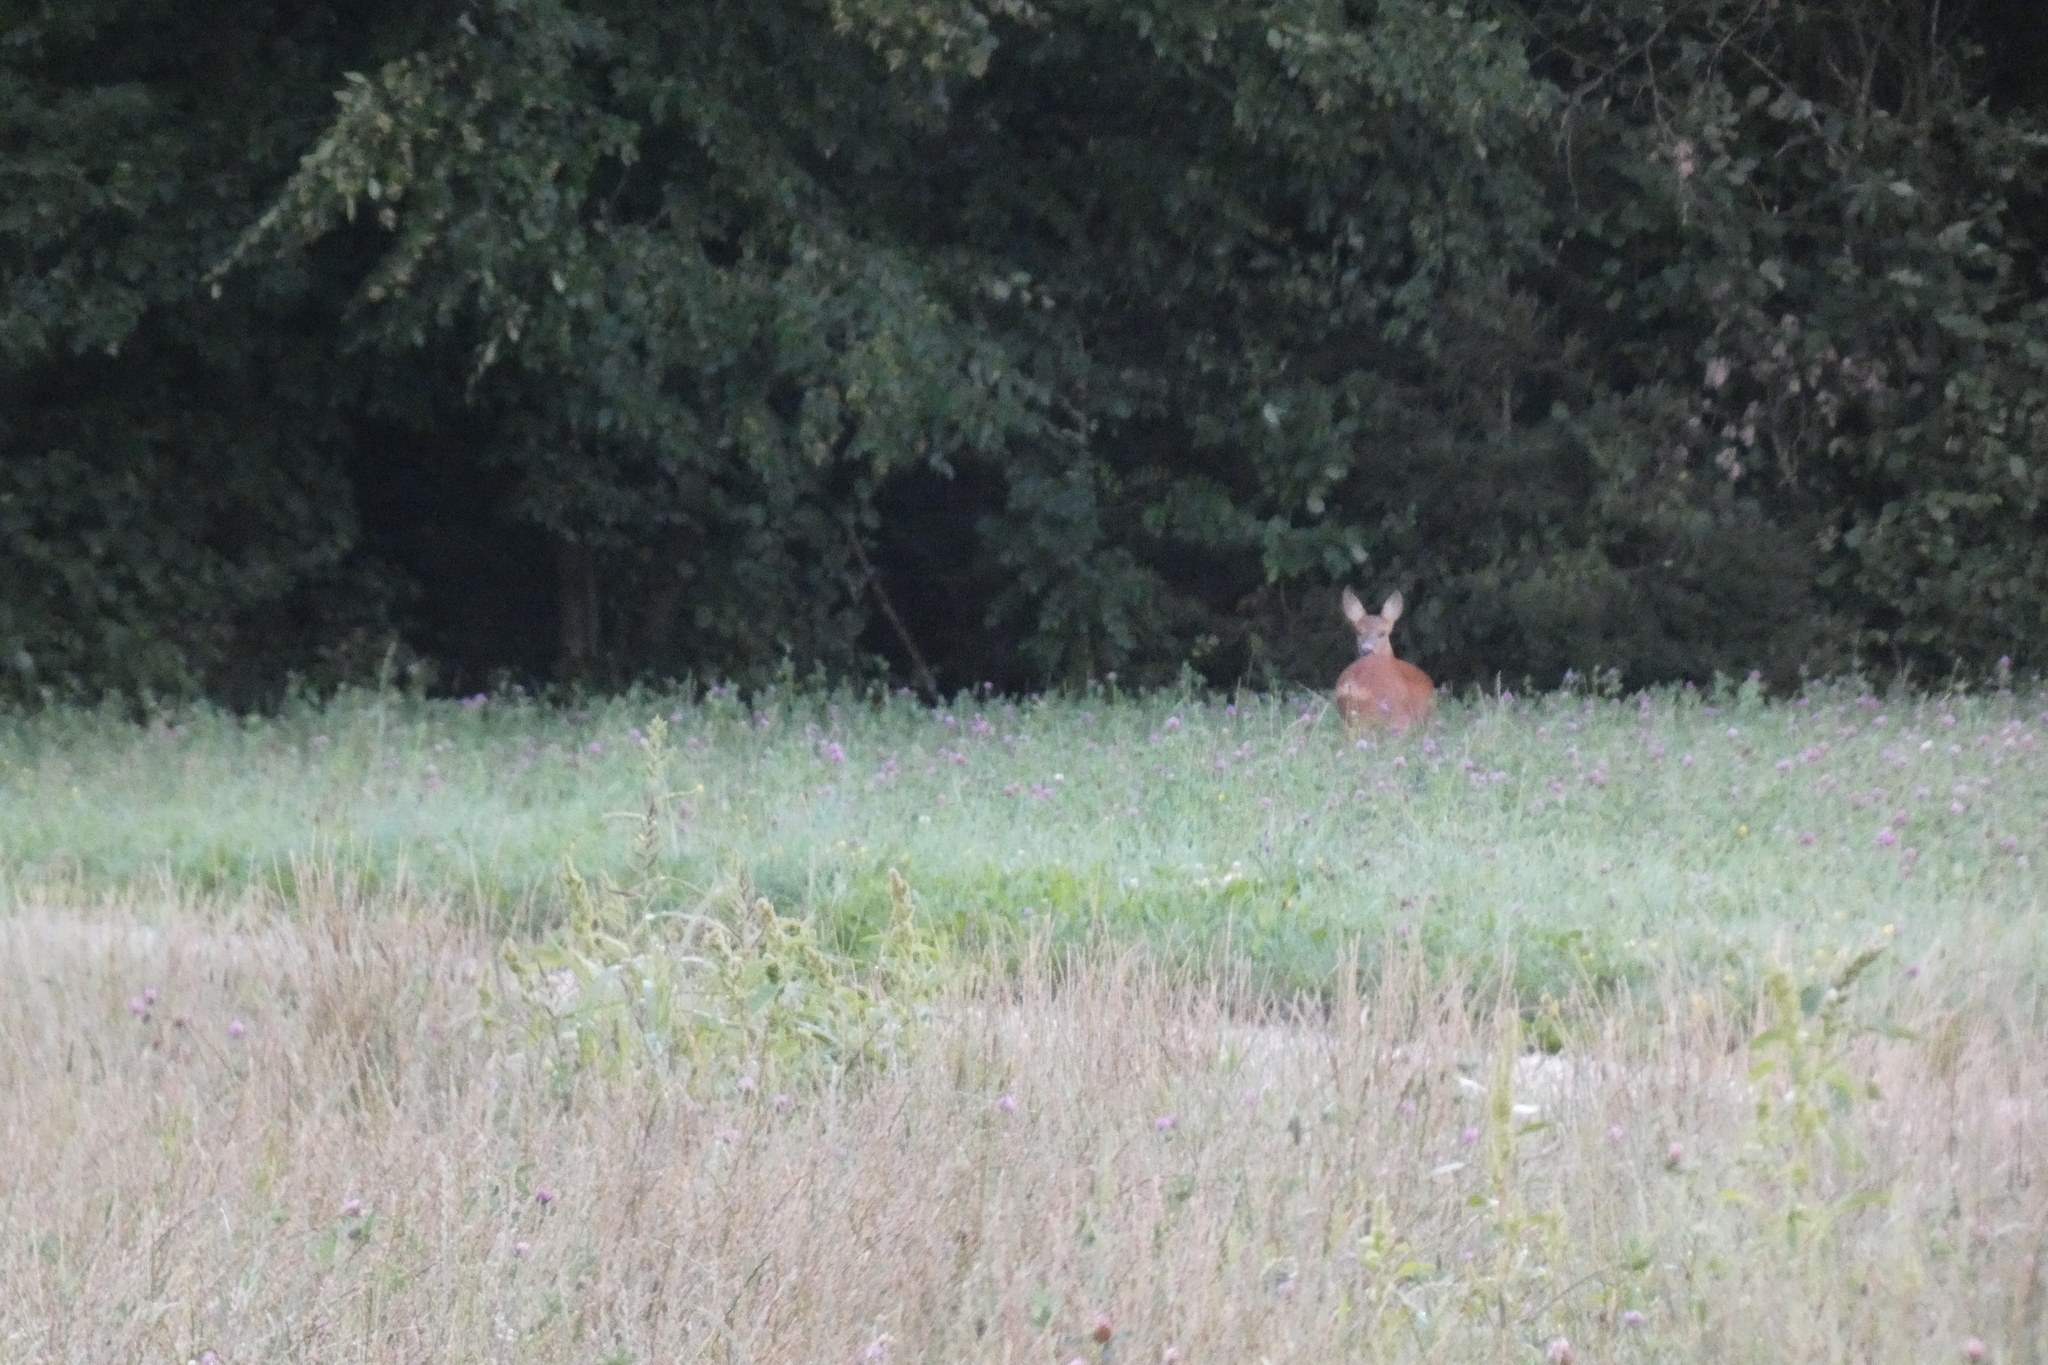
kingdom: Animalia
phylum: Chordata
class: Mammalia
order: Artiodactyla
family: Cervidae
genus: Capreolus
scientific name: Capreolus capreolus
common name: Western roe deer
